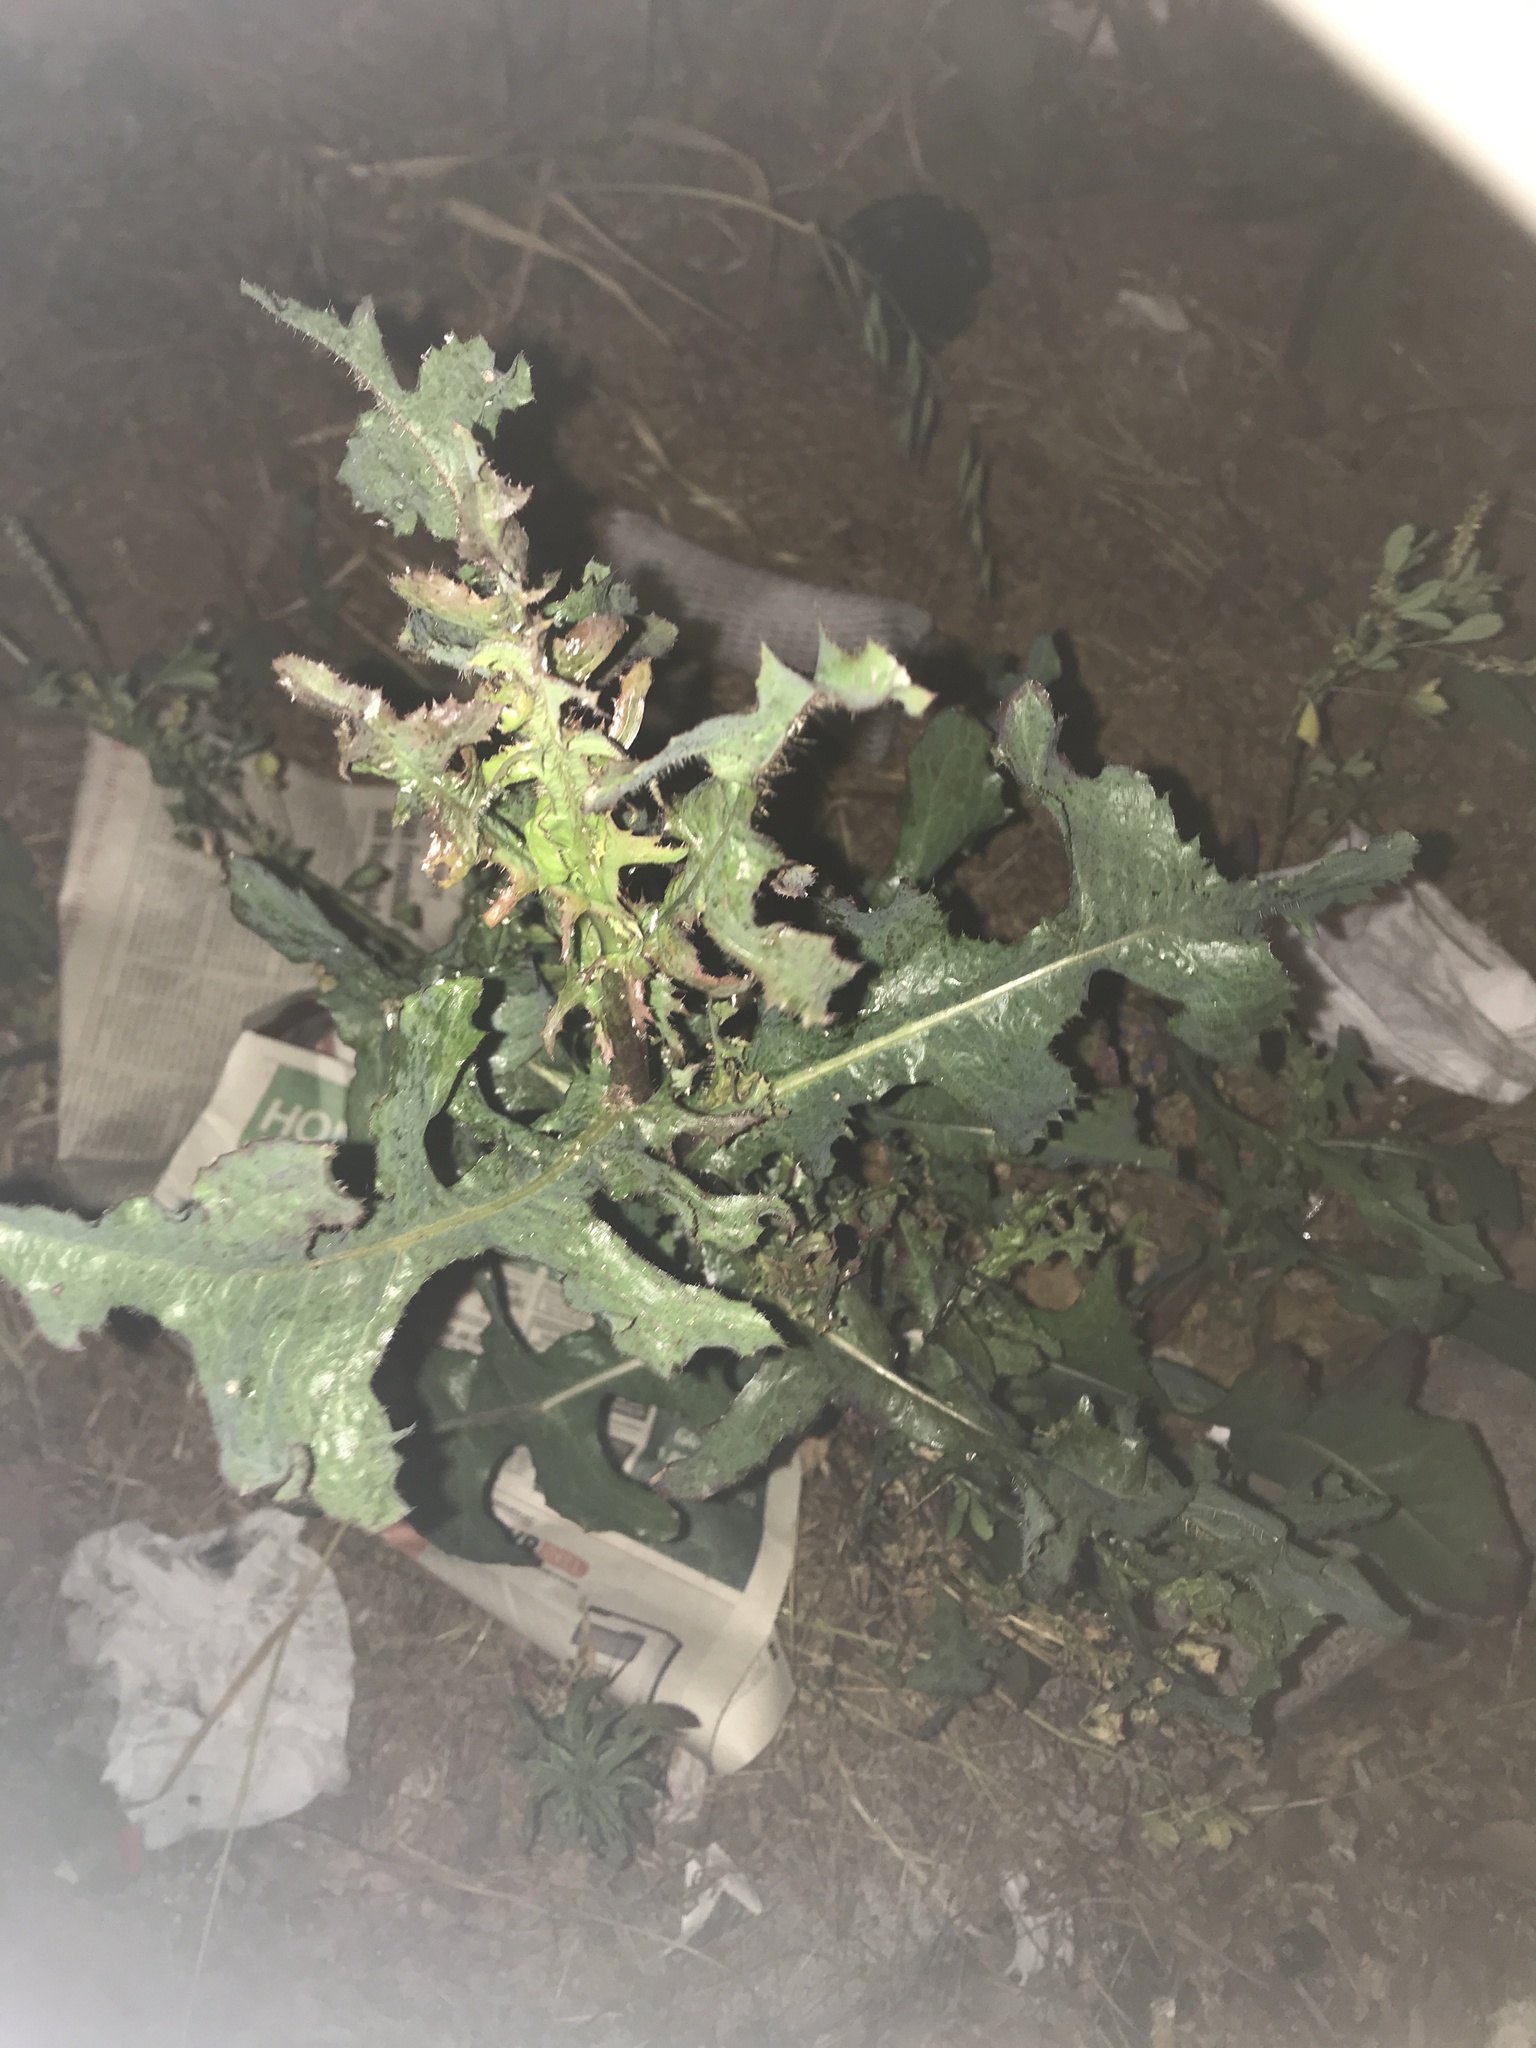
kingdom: Plantae
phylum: Tracheophyta
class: Magnoliopsida
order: Asterales
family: Asteraceae
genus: Lactuca
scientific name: Lactuca serriola
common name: Prickly lettuce
